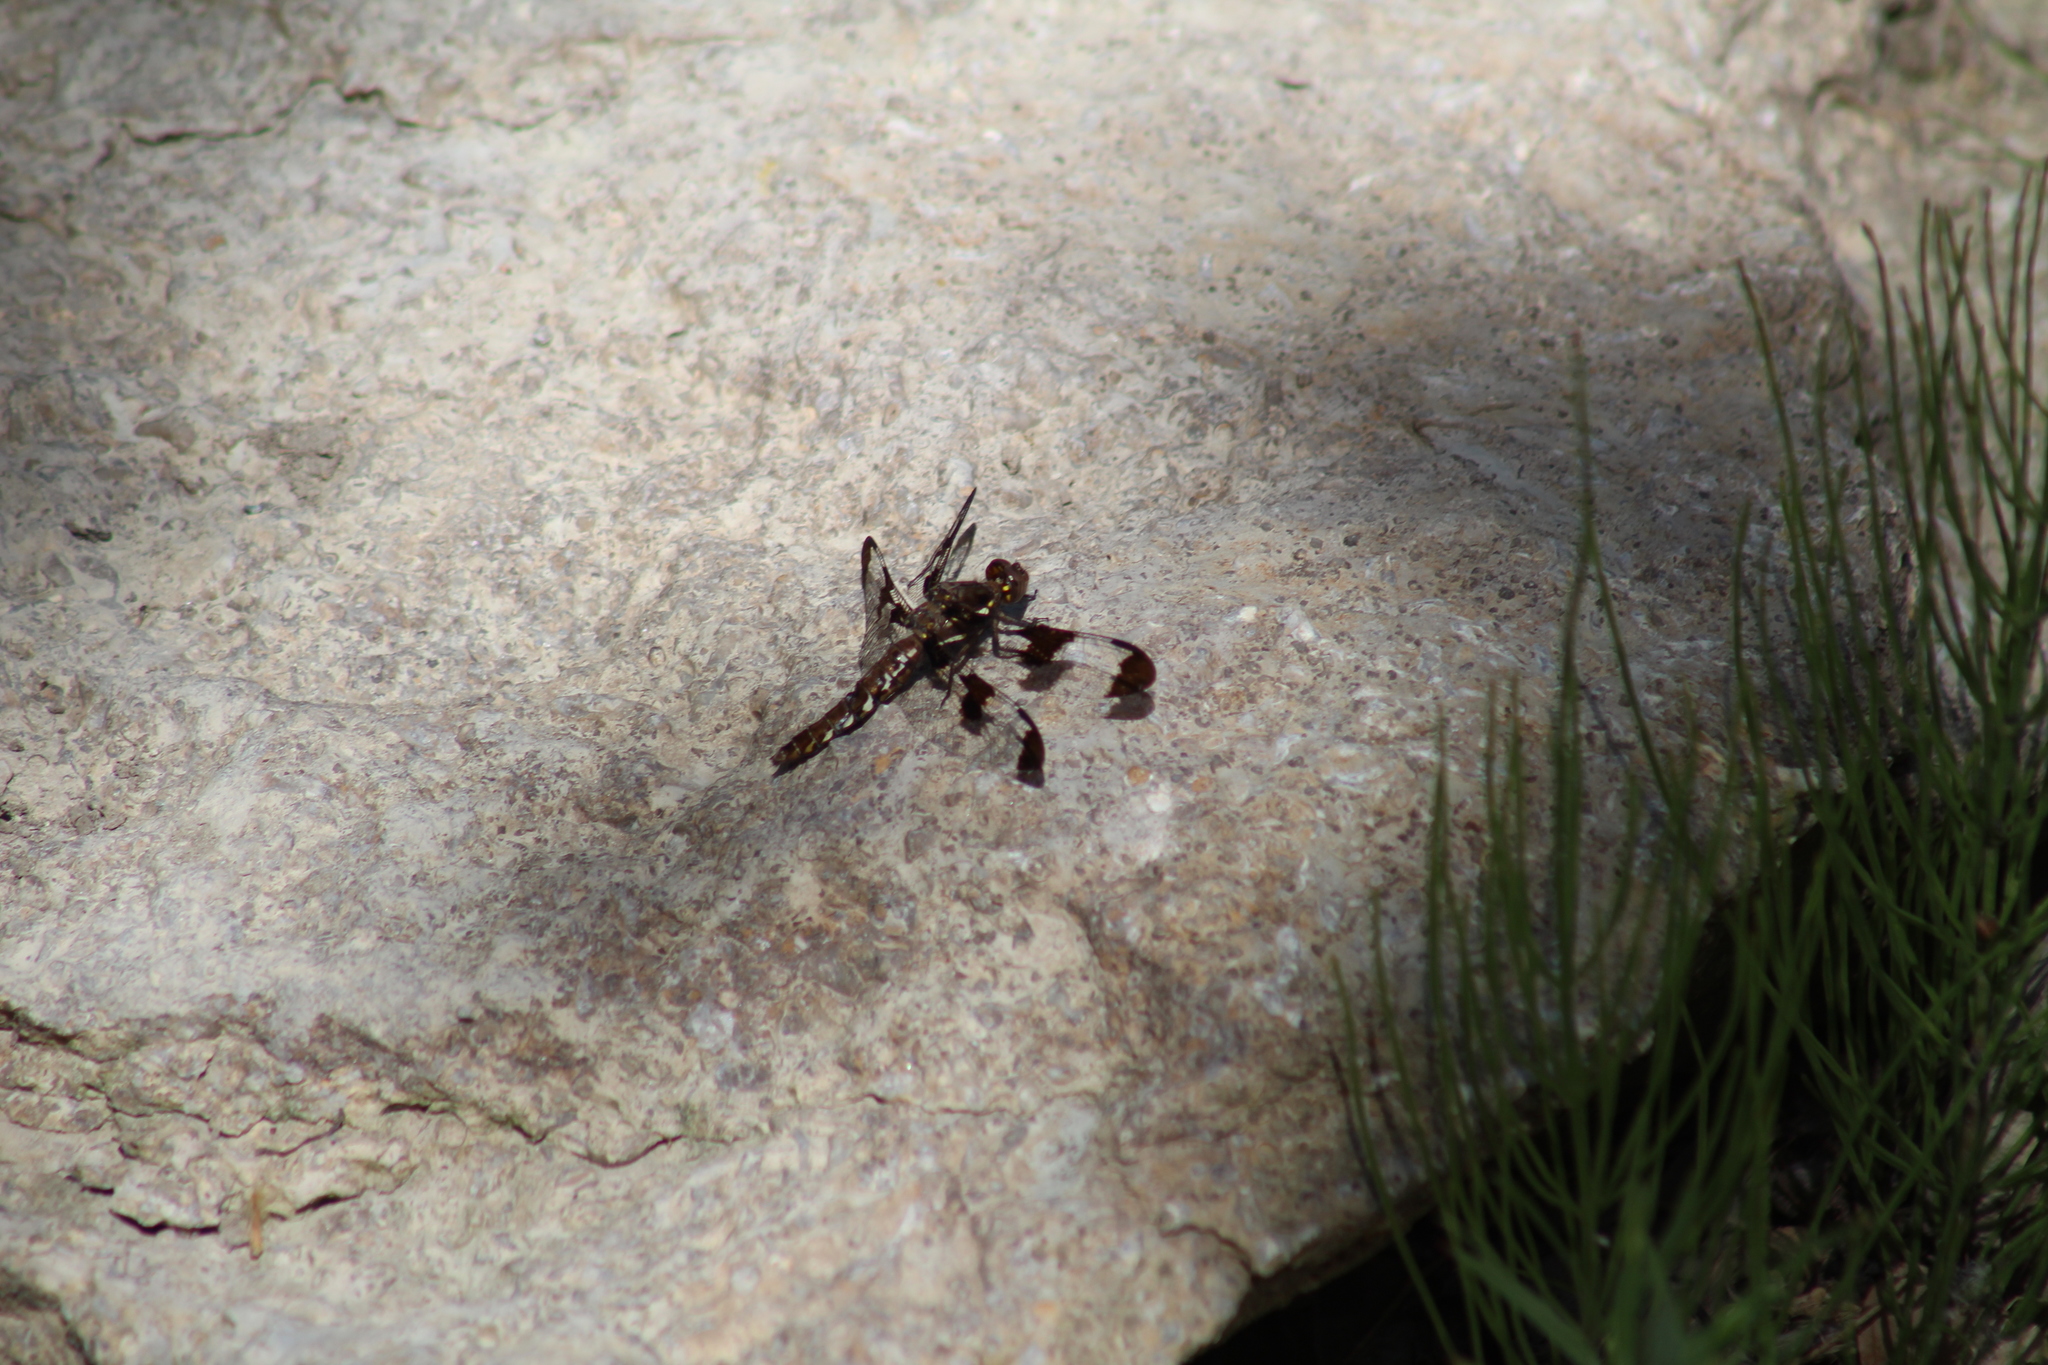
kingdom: Animalia
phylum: Arthropoda
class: Insecta
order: Odonata
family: Libellulidae
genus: Plathemis
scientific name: Plathemis lydia
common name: Common whitetail
